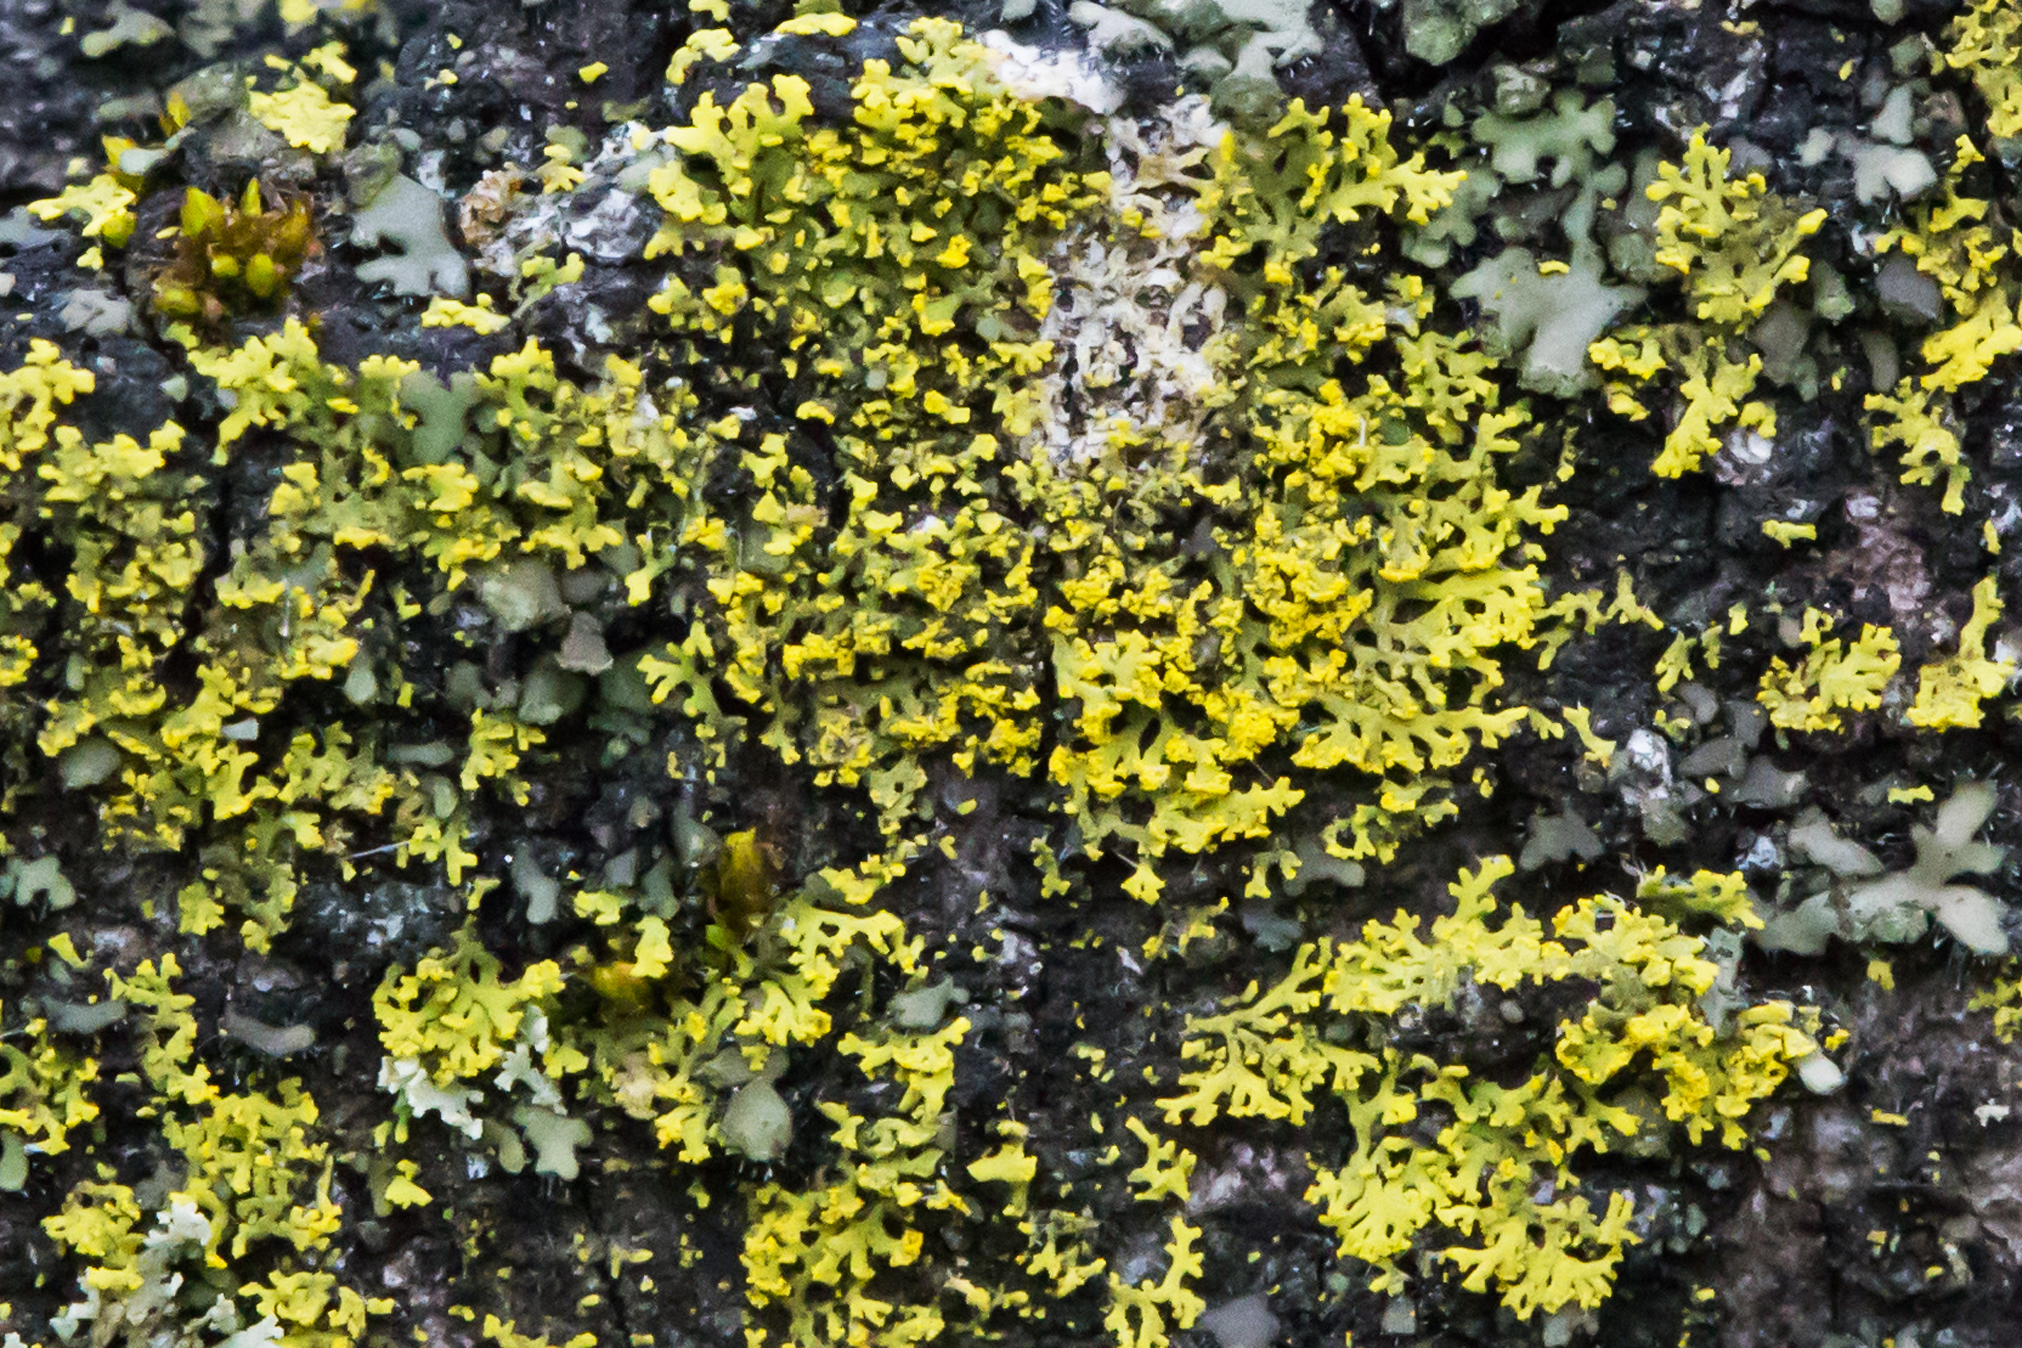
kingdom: Fungi
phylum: Ascomycota
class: Candelariomycetes
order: Candelariales
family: Candelariaceae
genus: Candelaria
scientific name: Candelaria concolor
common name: Candleflame lichen
